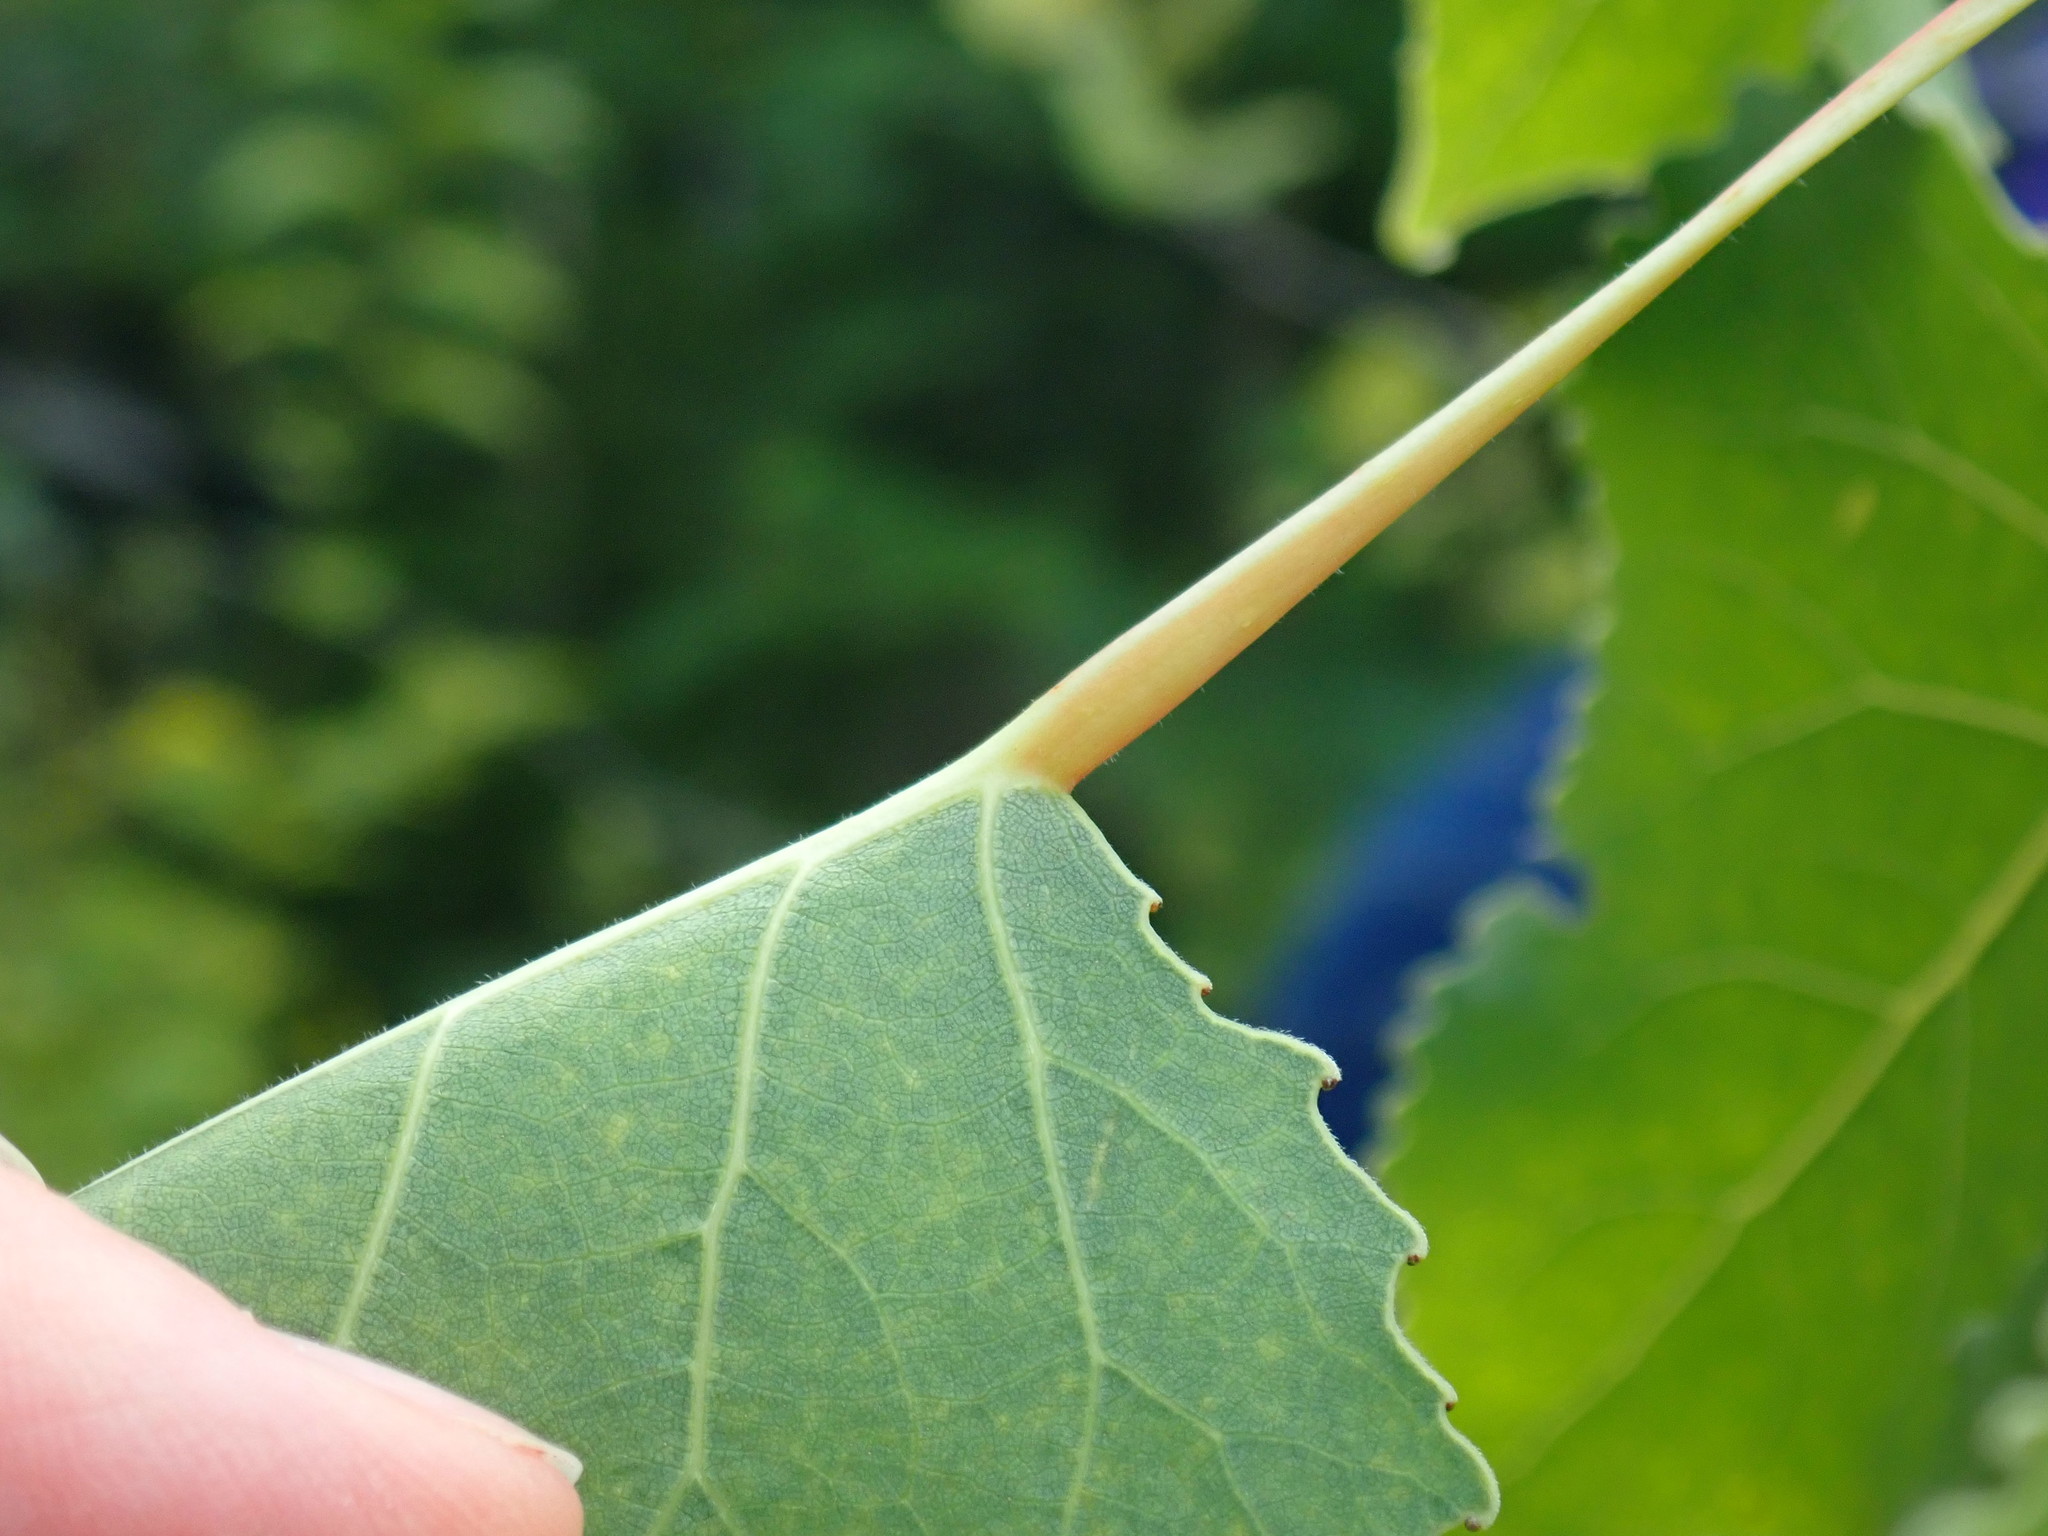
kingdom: Plantae
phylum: Tracheophyta
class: Magnoliopsida
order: Malpighiales
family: Salicaceae
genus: Populus
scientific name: Populus deltoides
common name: Eastern cottonwood
